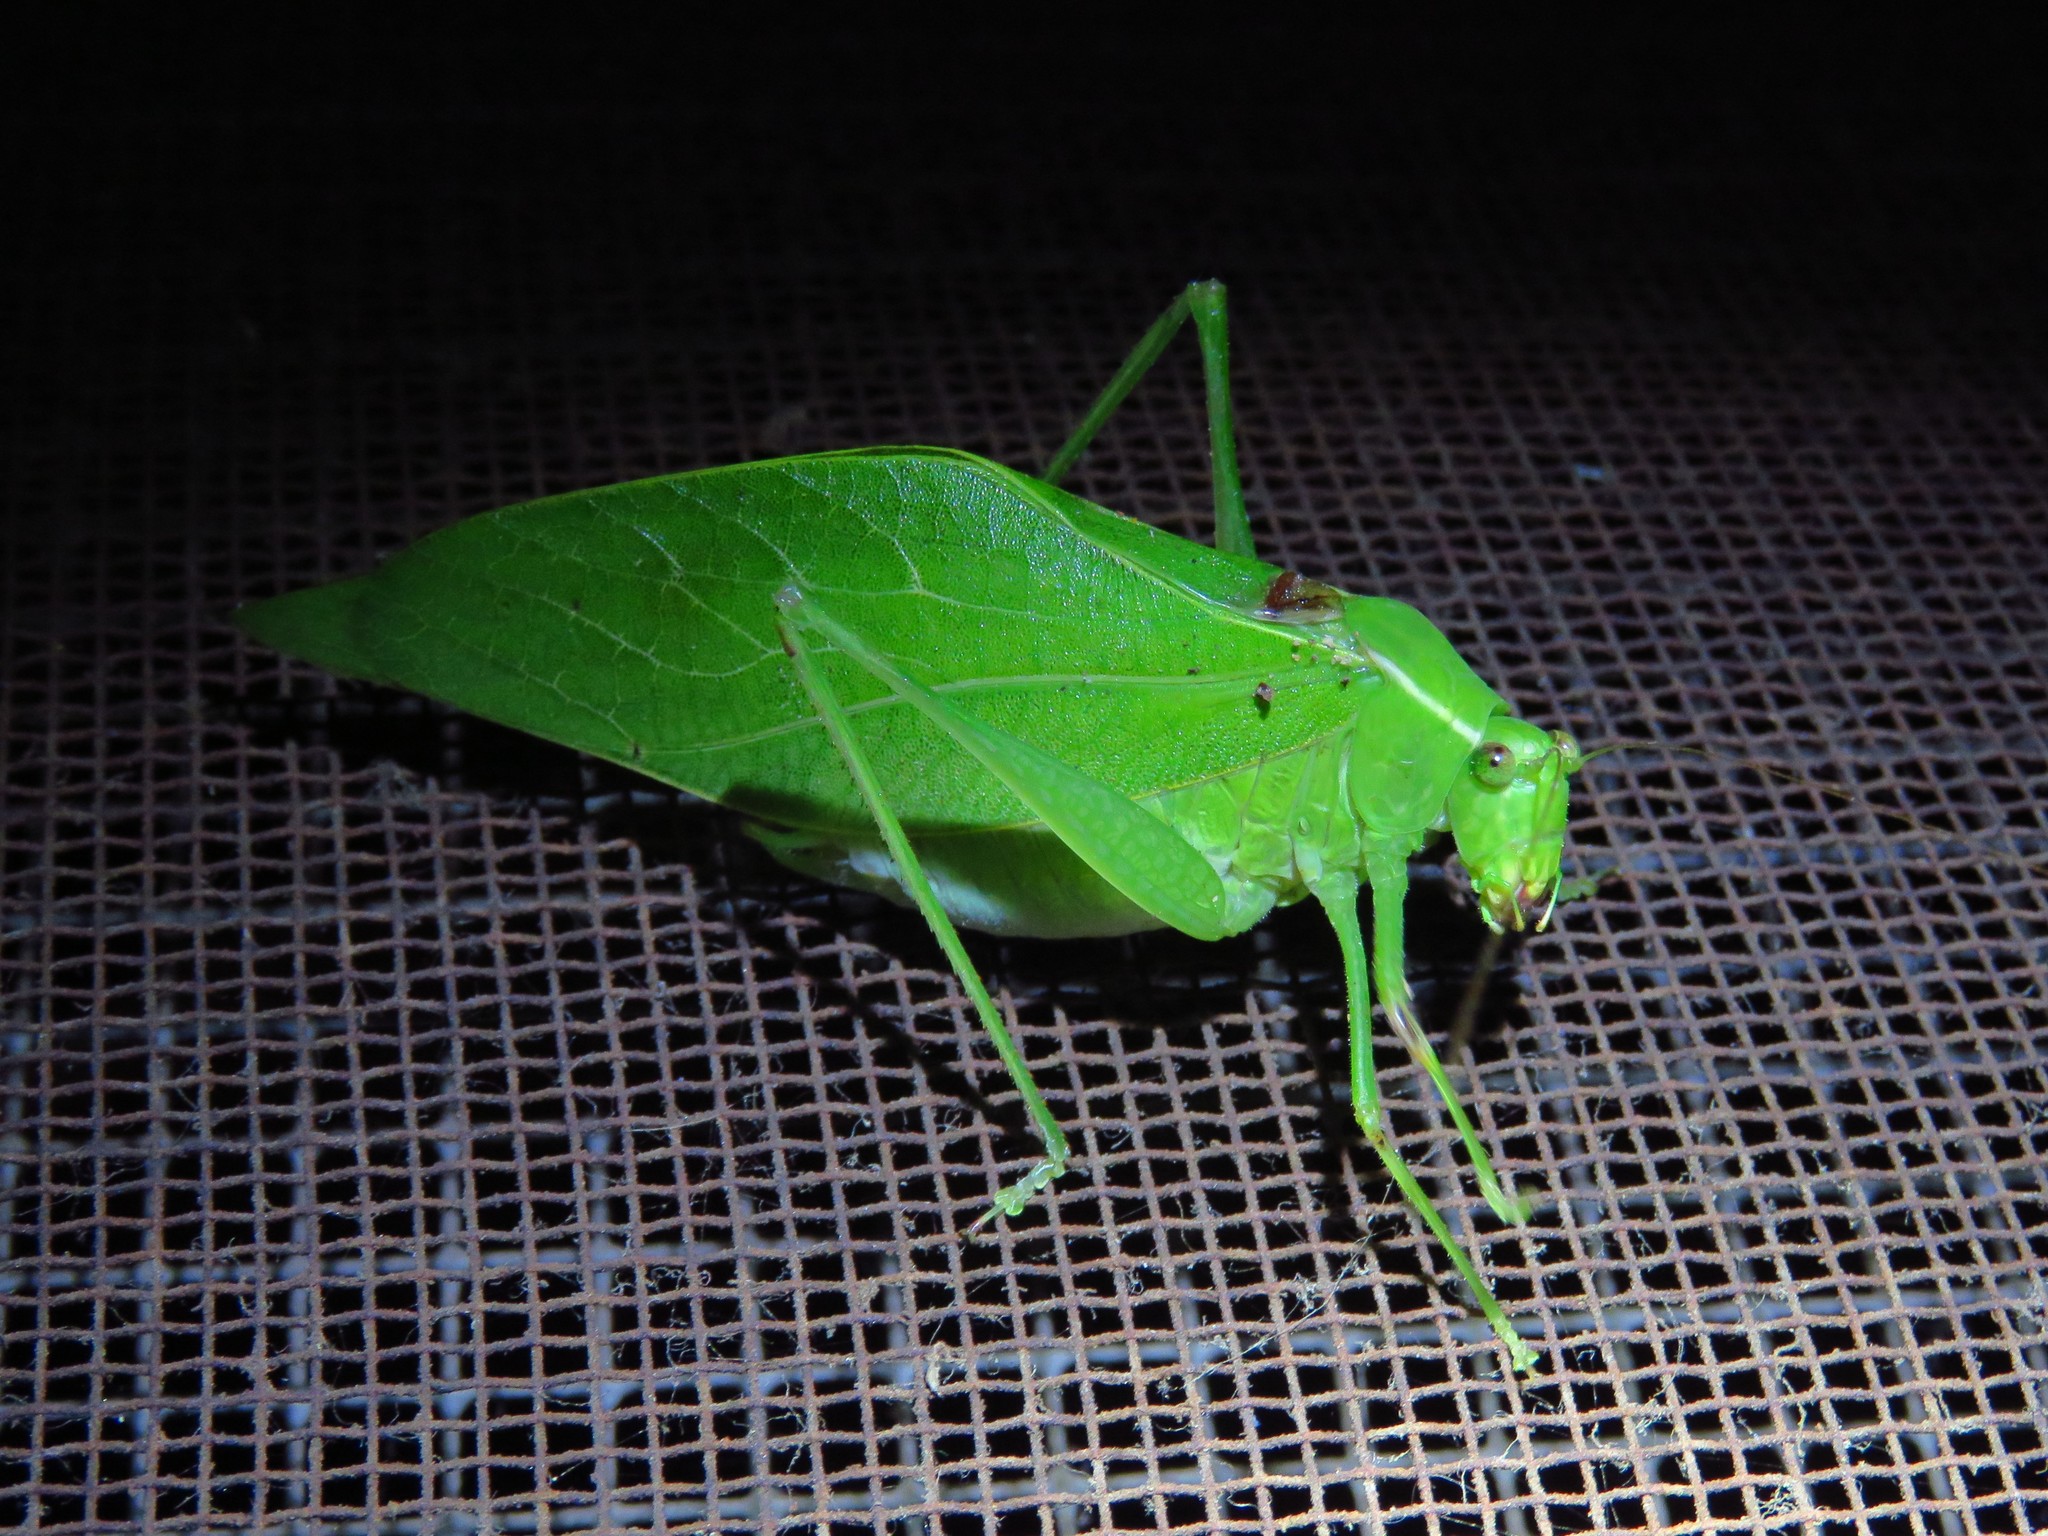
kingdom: Animalia
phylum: Arthropoda
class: Insecta
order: Orthoptera
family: Tettigoniidae
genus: Microcentrum
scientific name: Microcentrum retinerve
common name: Angular-winged katydid
